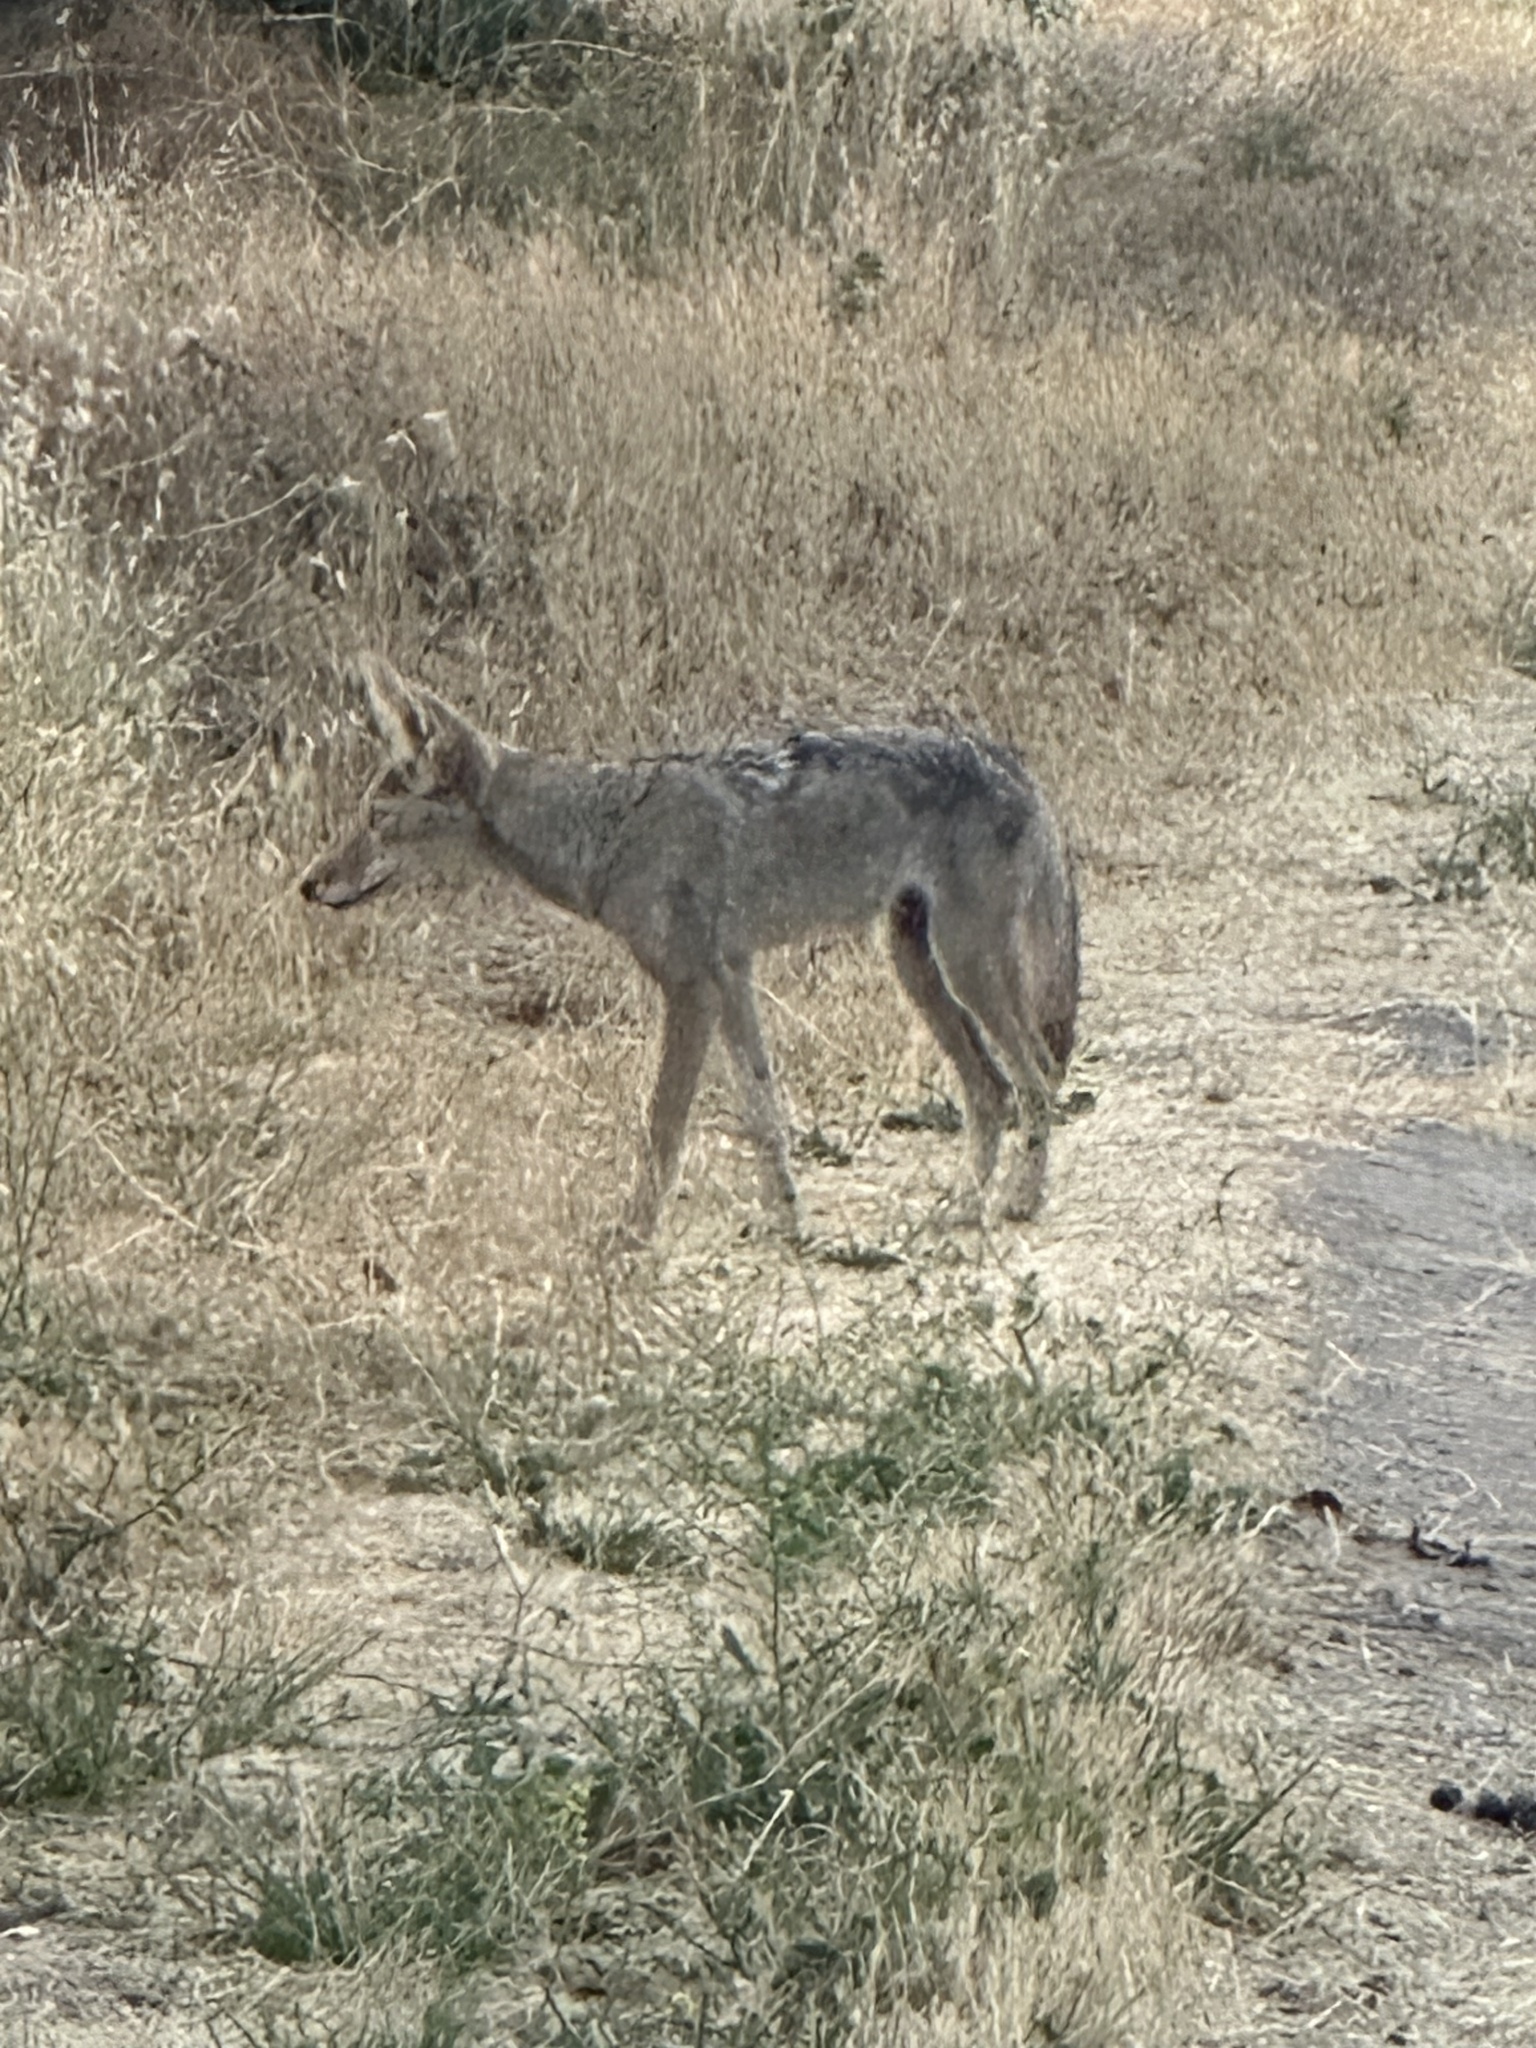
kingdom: Animalia
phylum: Chordata
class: Mammalia
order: Carnivora
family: Canidae
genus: Canis
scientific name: Canis latrans
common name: Coyote
